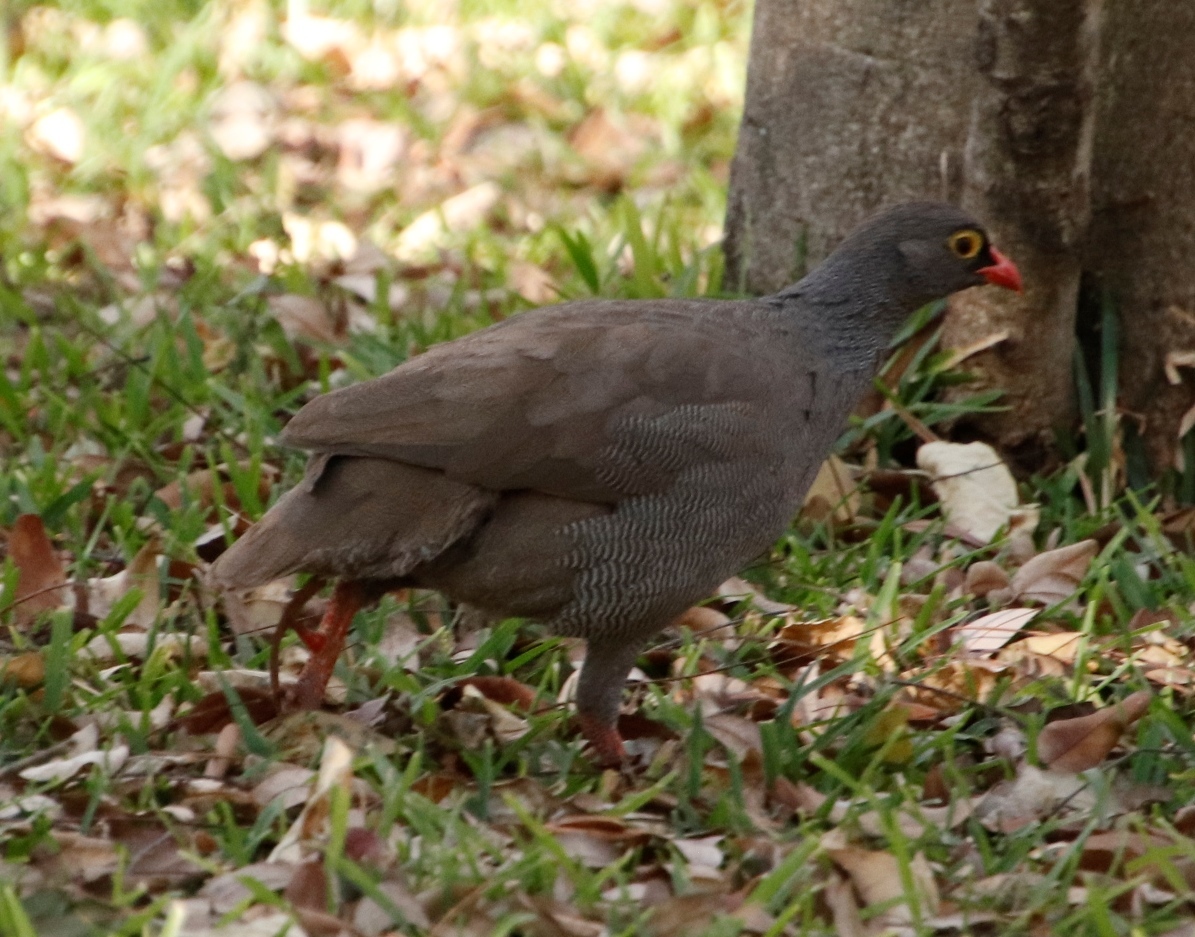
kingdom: Animalia
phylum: Chordata
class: Aves
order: Galliformes
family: Phasianidae
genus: Pternistis
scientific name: Pternistis adspersus
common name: Red-billed spurfowl
